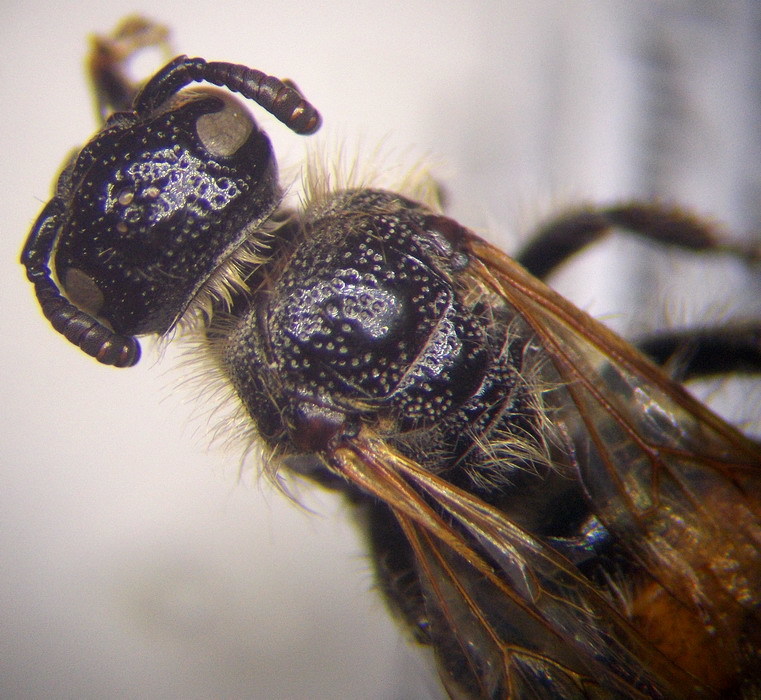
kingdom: Animalia
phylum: Arthropoda
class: Insecta
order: Hymenoptera
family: Scoliidae
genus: Colpa
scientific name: Colpa quinquecincta
